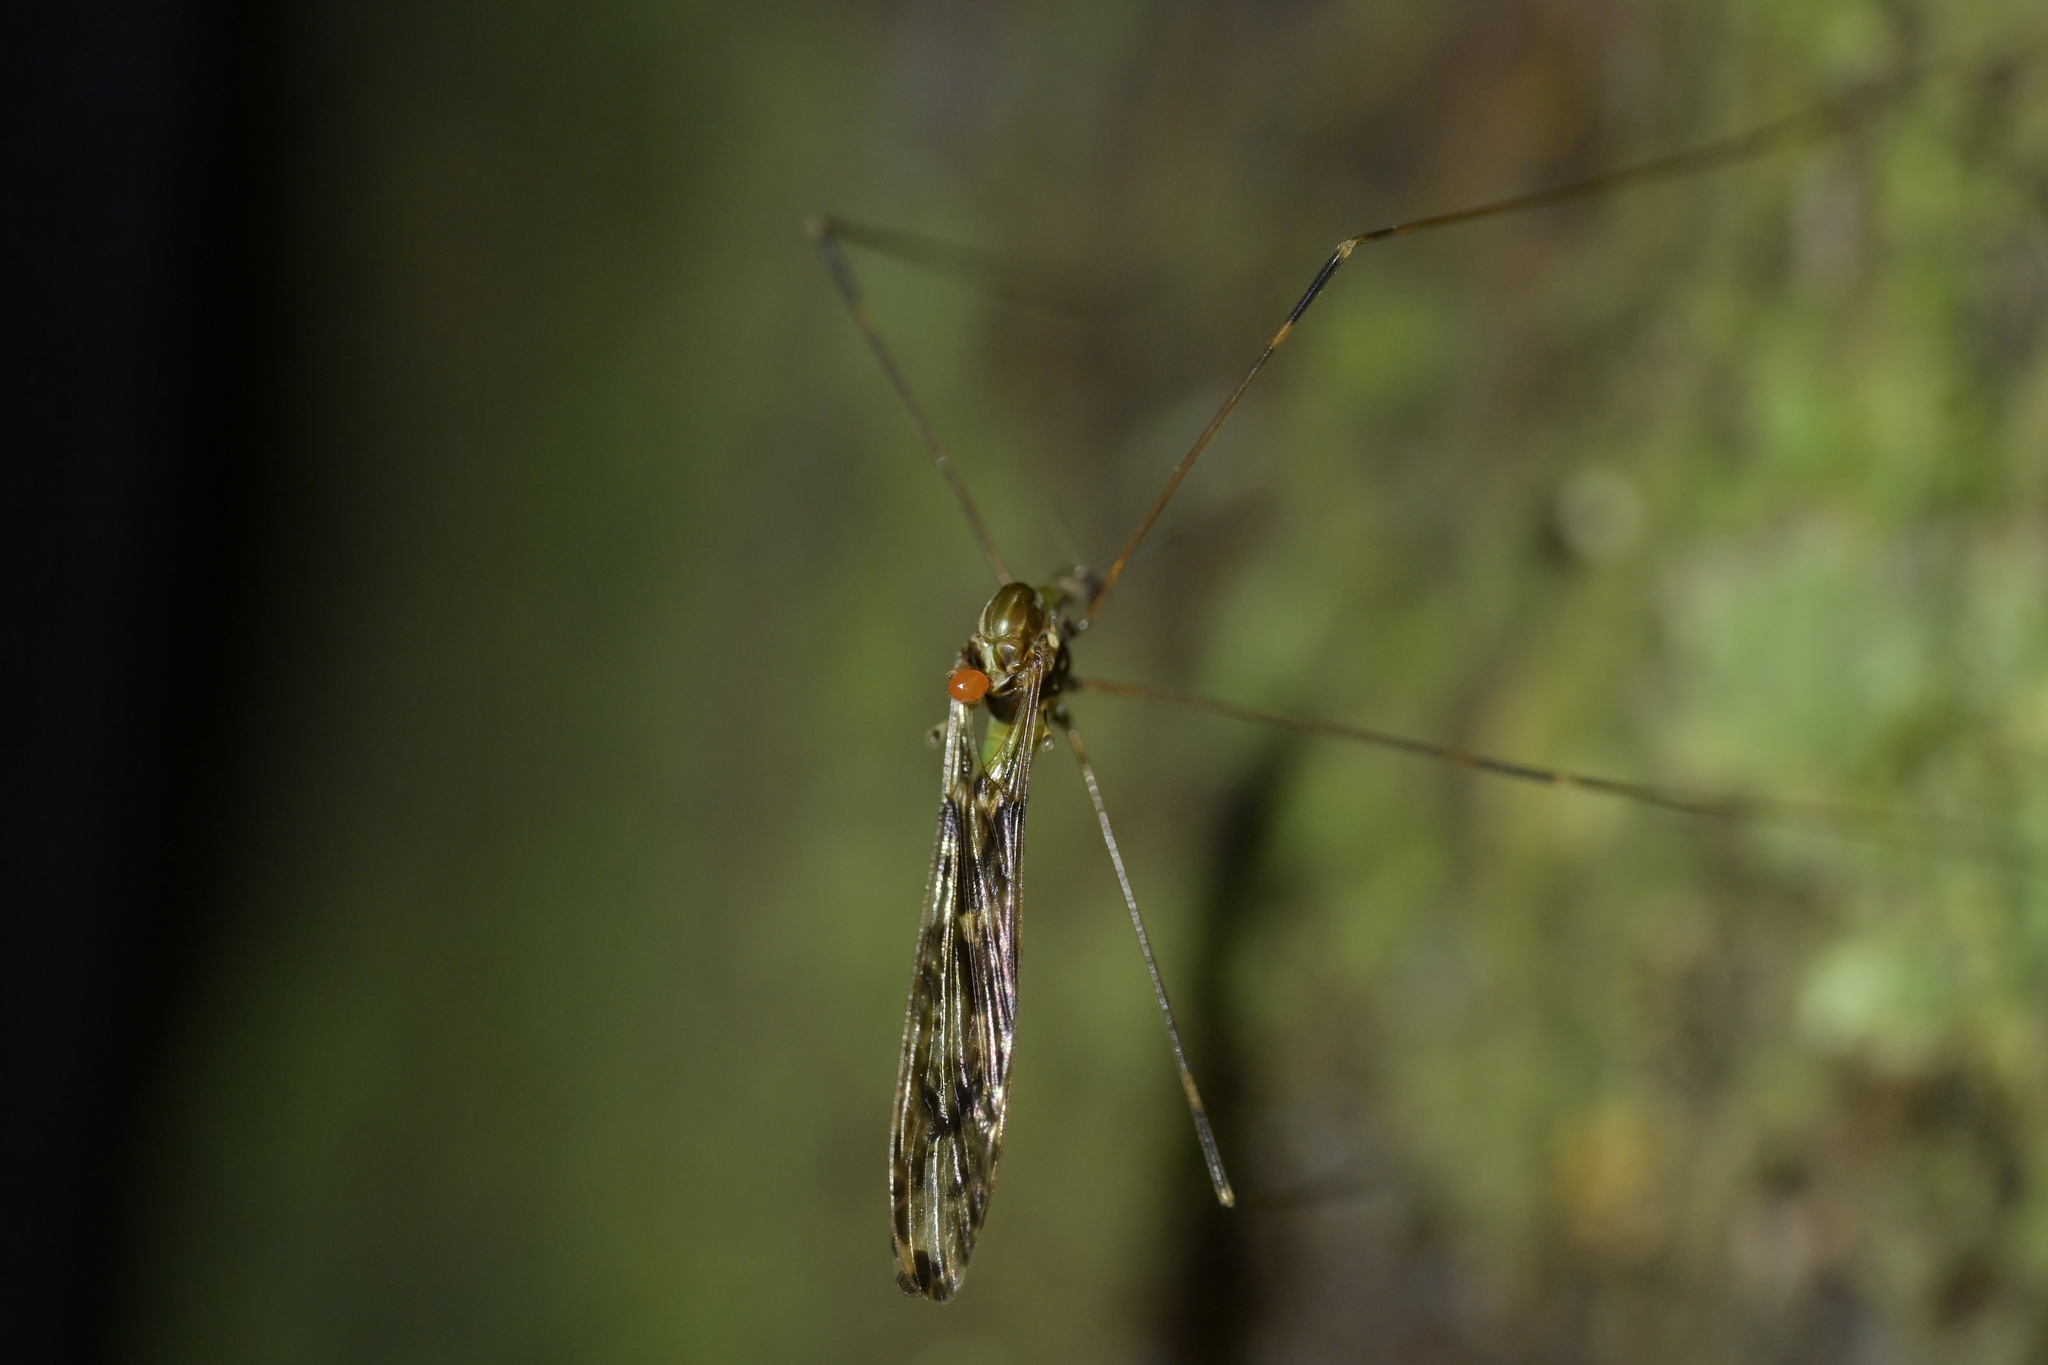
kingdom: Animalia
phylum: Arthropoda
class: Insecta
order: Diptera
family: Limoniidae
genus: Discobola
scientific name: Discobola dohrni
